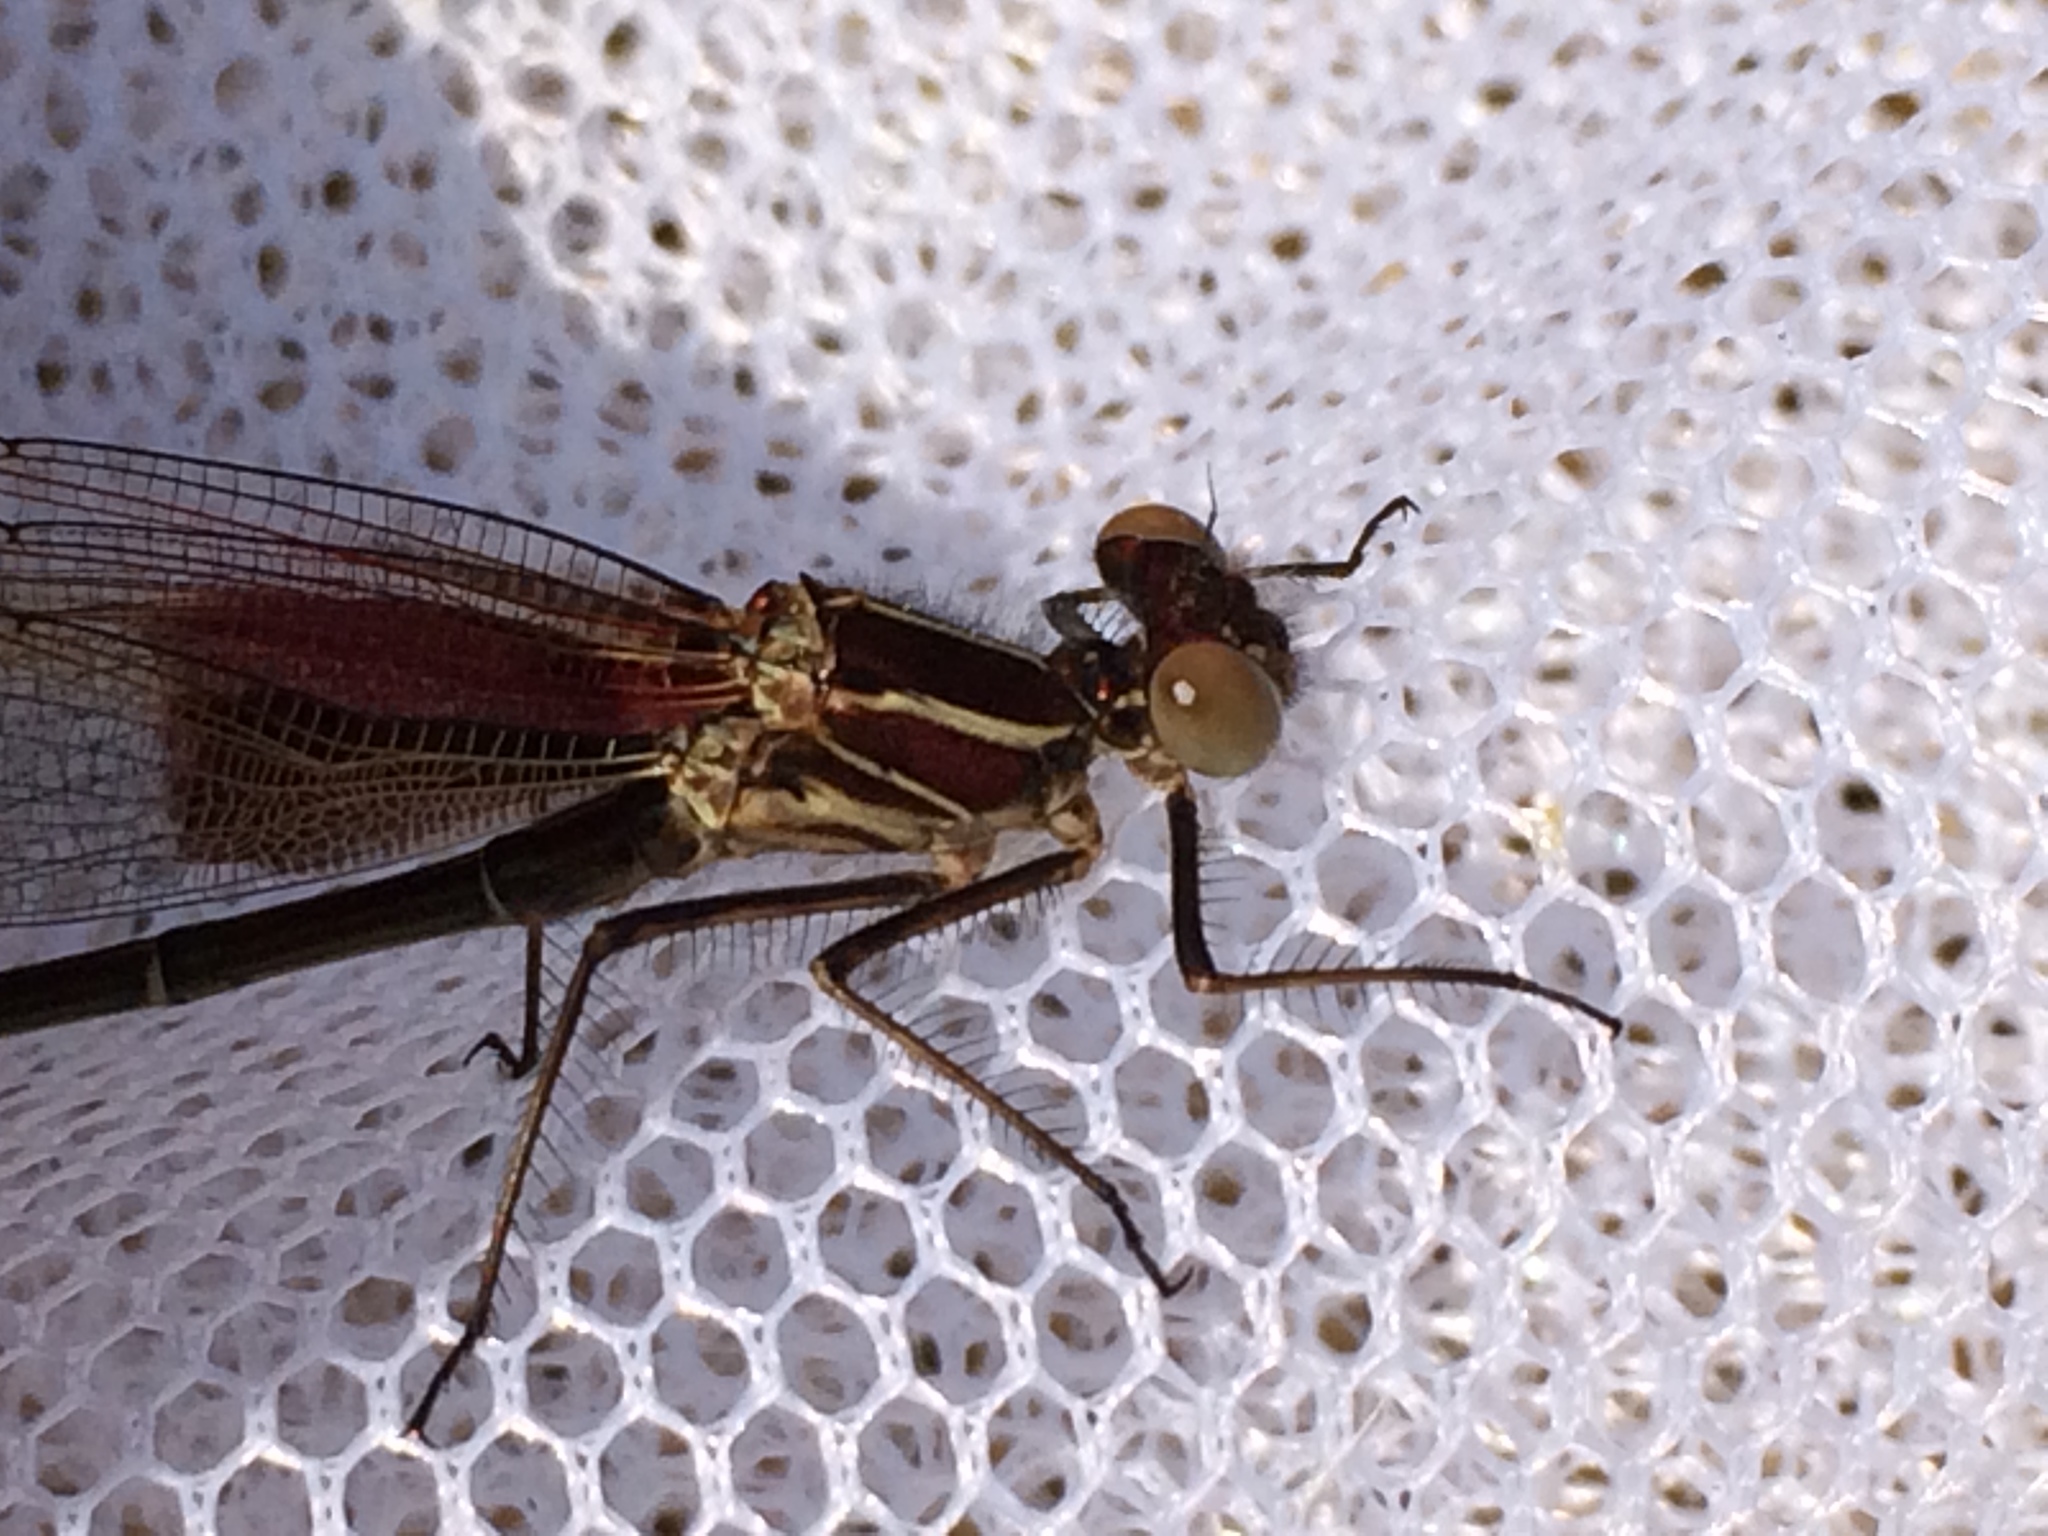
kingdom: Animalia
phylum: Arthropoda
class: Insecta
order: Odonata
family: Calopterygidae
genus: Hetaerina
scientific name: Hetaerina americana
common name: American rubyspot
